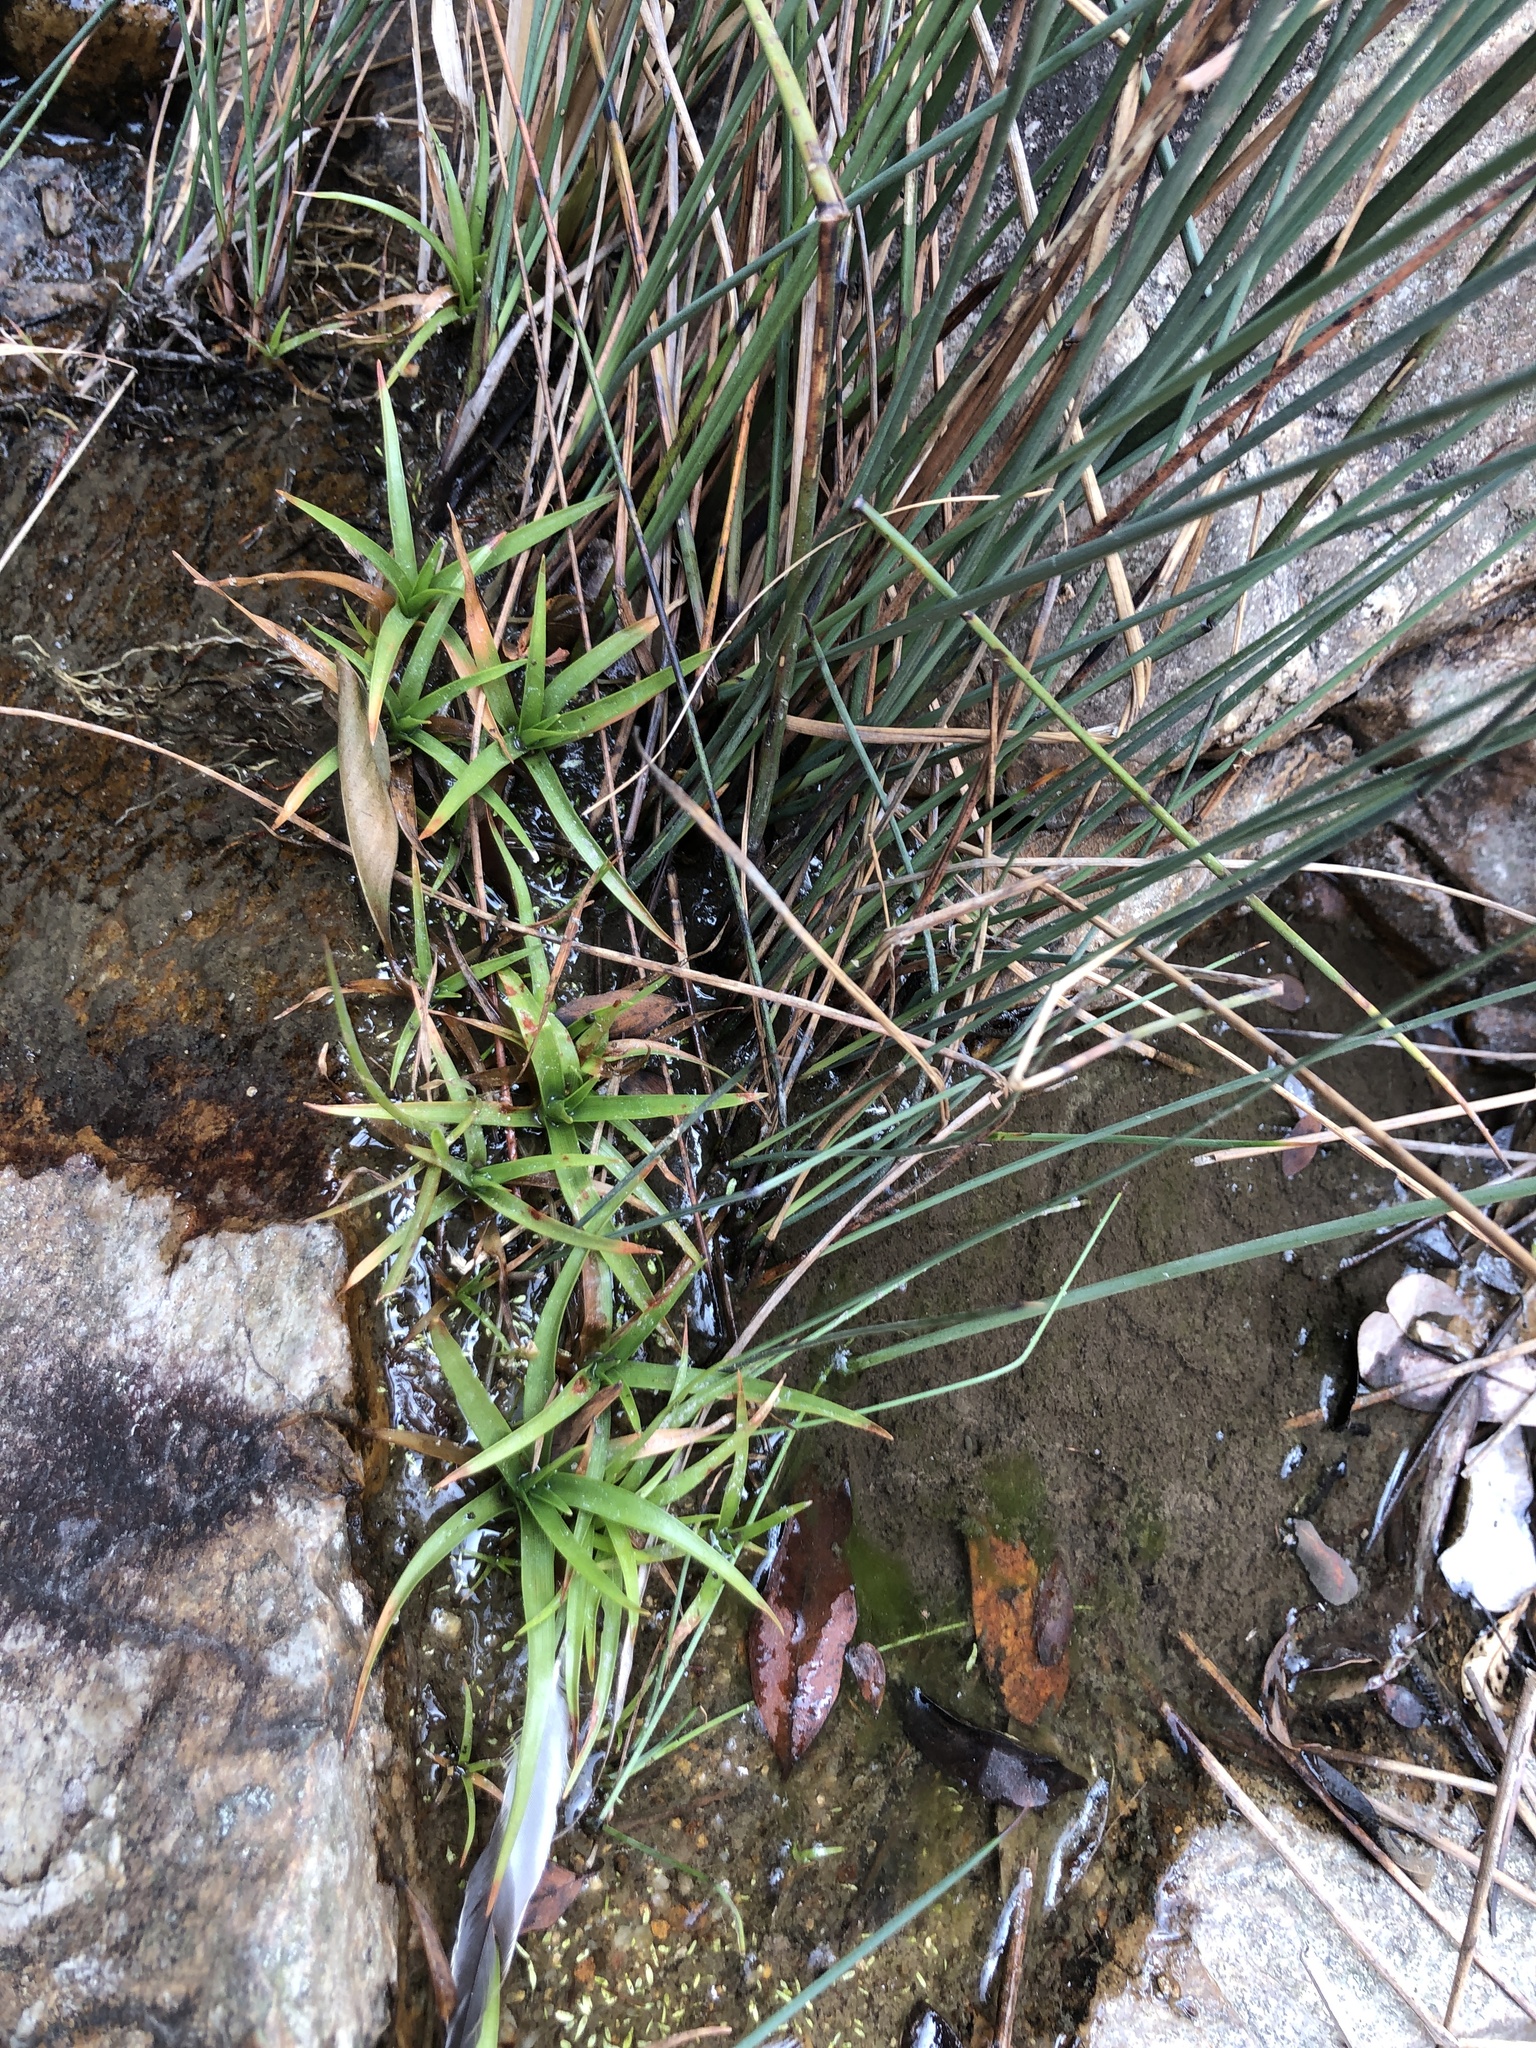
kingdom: Plantae
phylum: Tracheophyta
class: Liliopsida
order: Poales
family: Eriocaulaceae
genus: Eriocaulon
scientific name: Eriocaulon sexangulare
